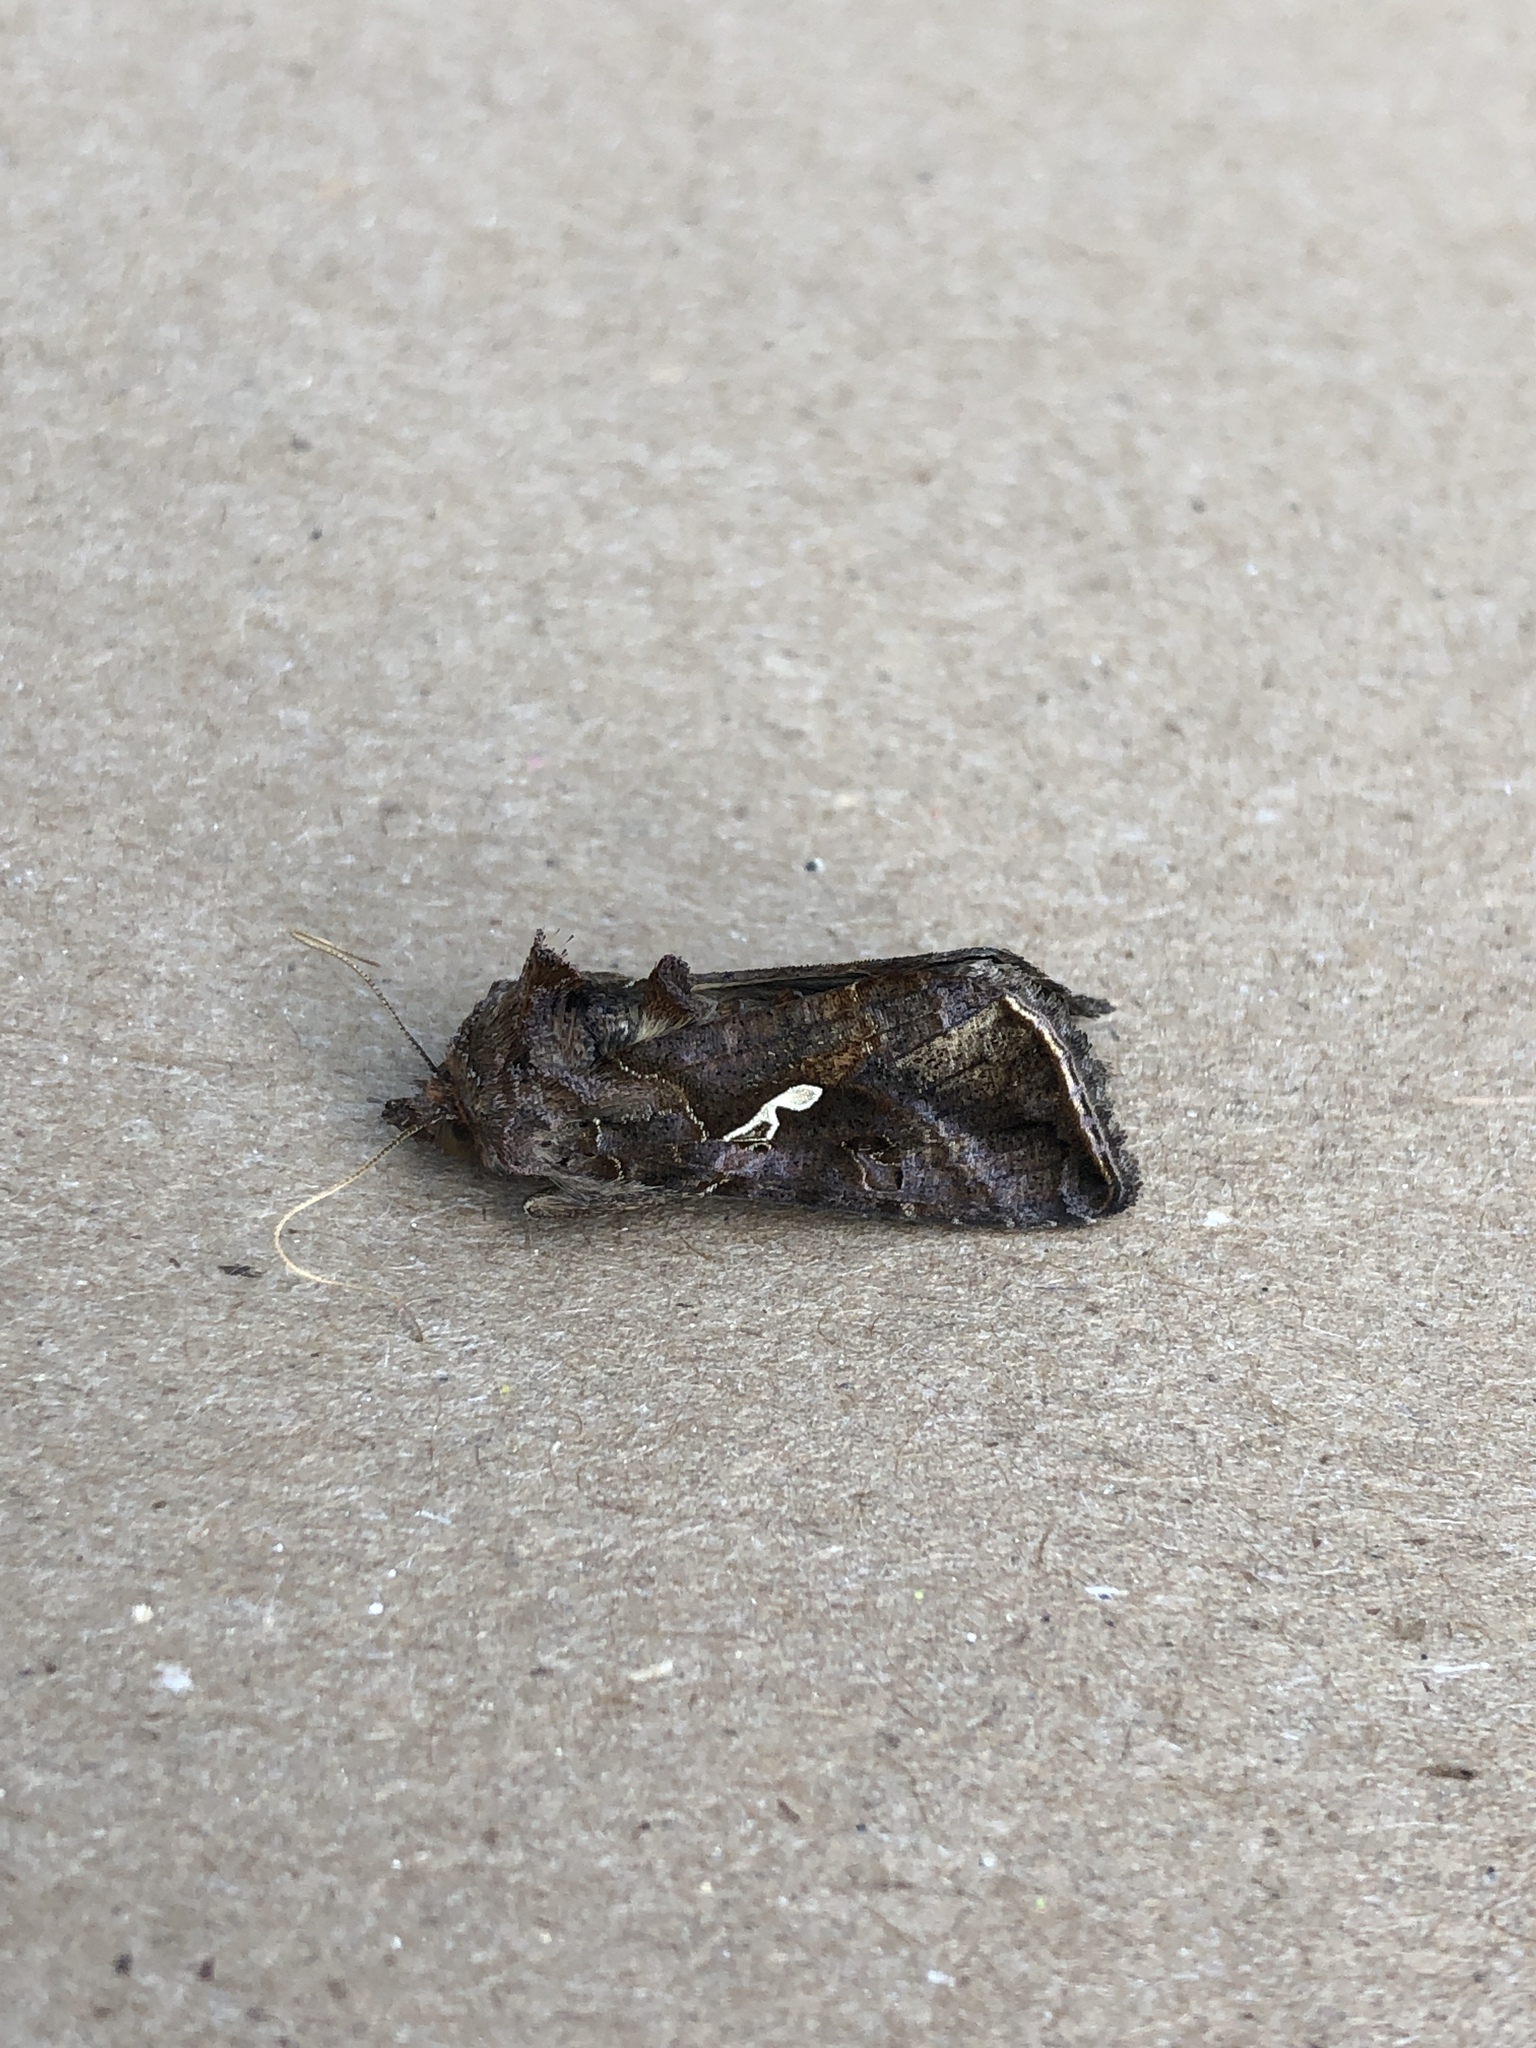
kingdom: Animalia
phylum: Arthropoda
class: Insecta
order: Lepidoptera
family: Noctuidae
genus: Autographa
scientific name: Autographa precationis
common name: Common looper moth
